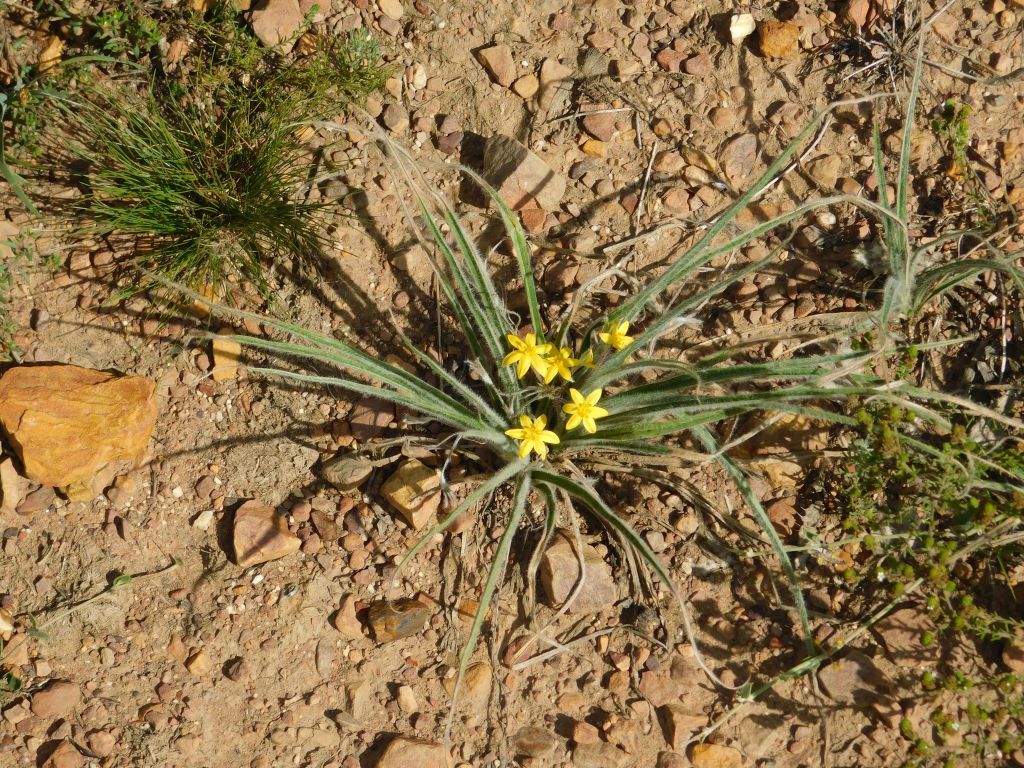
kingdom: Plantae
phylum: Tracheophyta
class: Liliopsida
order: Asparagales
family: Hypoxidaceae
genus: Hypoxis
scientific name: Hypoxis floccosa
